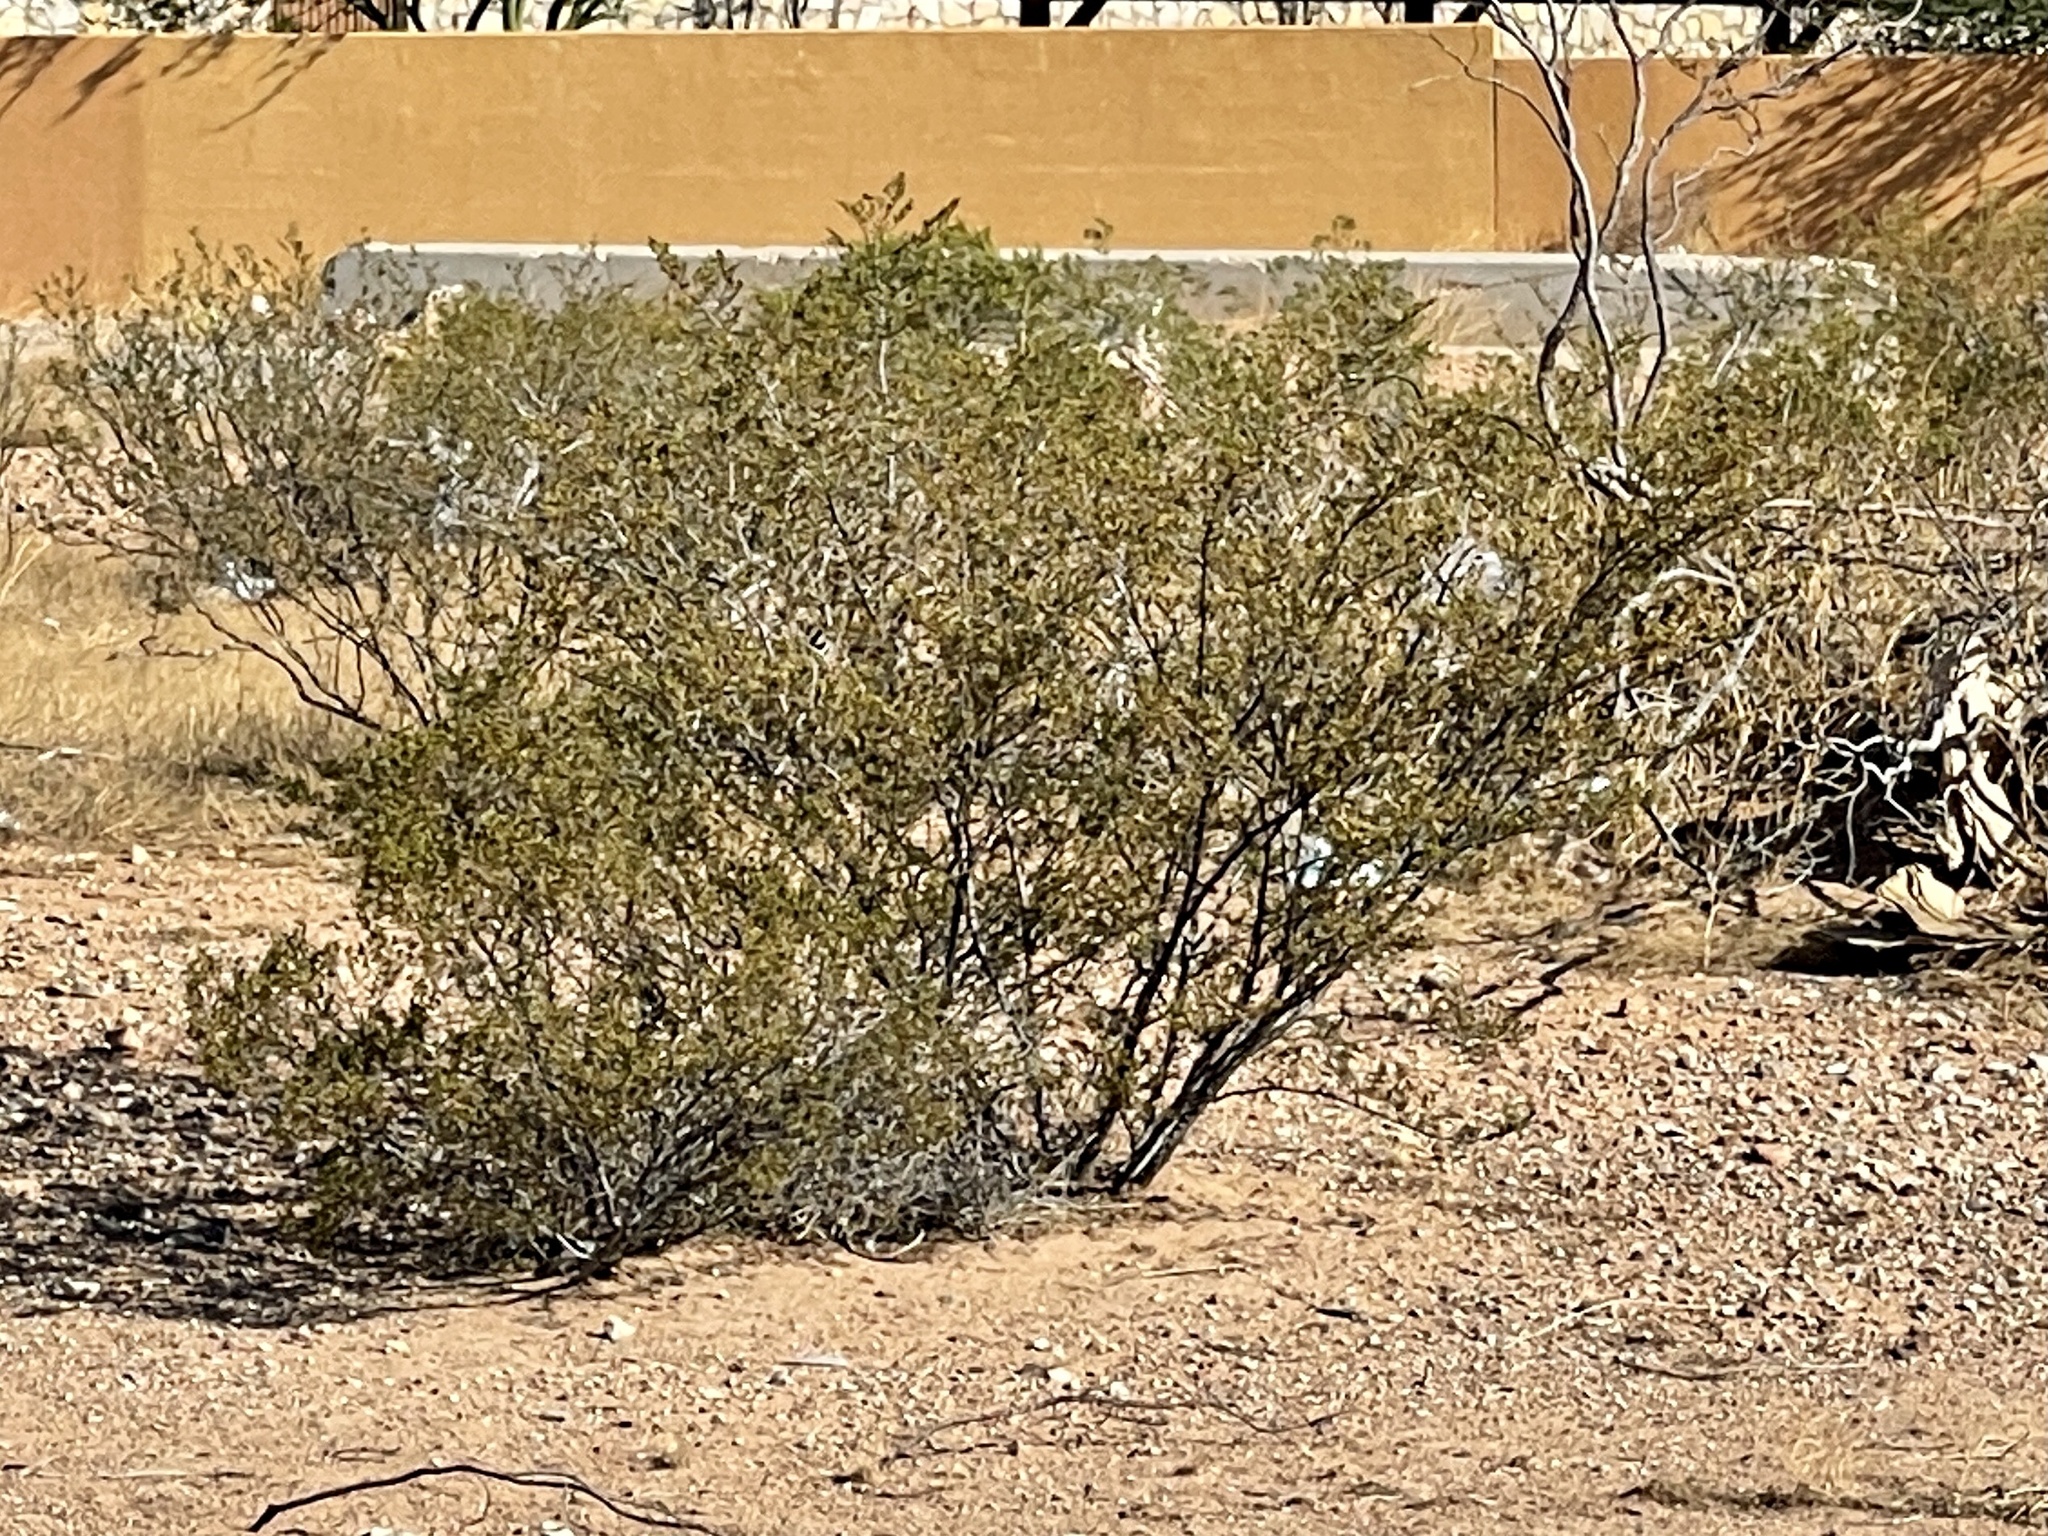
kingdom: Plantae
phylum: Tracheophyta
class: Magnoliopsida
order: Zygophyllales
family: Zygophyllaceae
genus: Larrea
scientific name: Larrea tridentata
